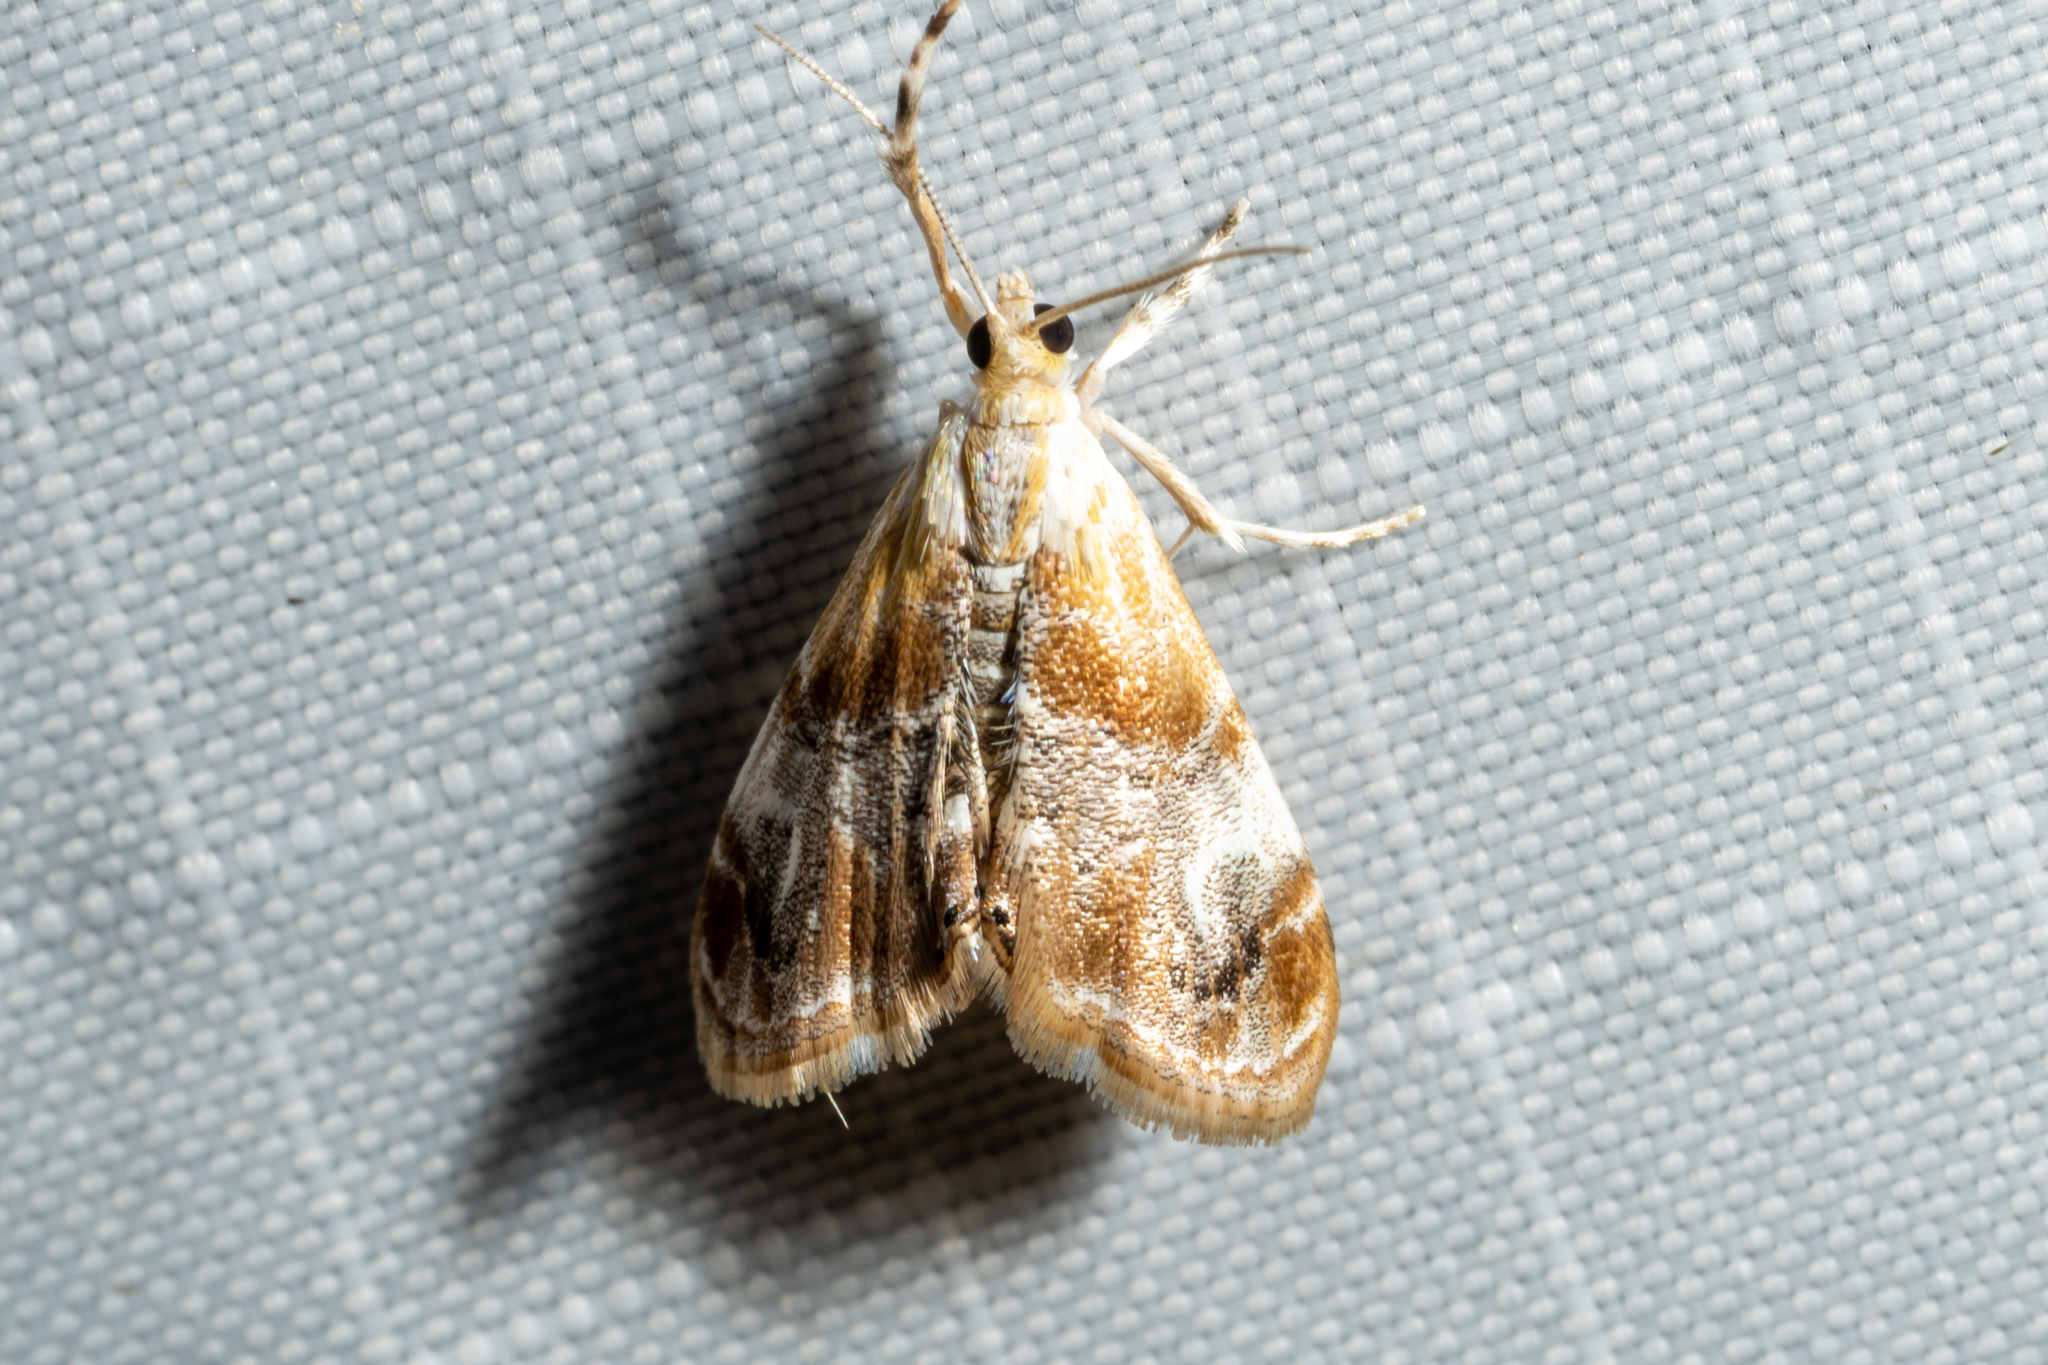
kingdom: Animalia
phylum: Arthropoda
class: Insecta
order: Lepidoptera
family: Crambidae
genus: Dicymolomia
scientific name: Dicymolomia julianalis
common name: Julia's dicymolomia moth
